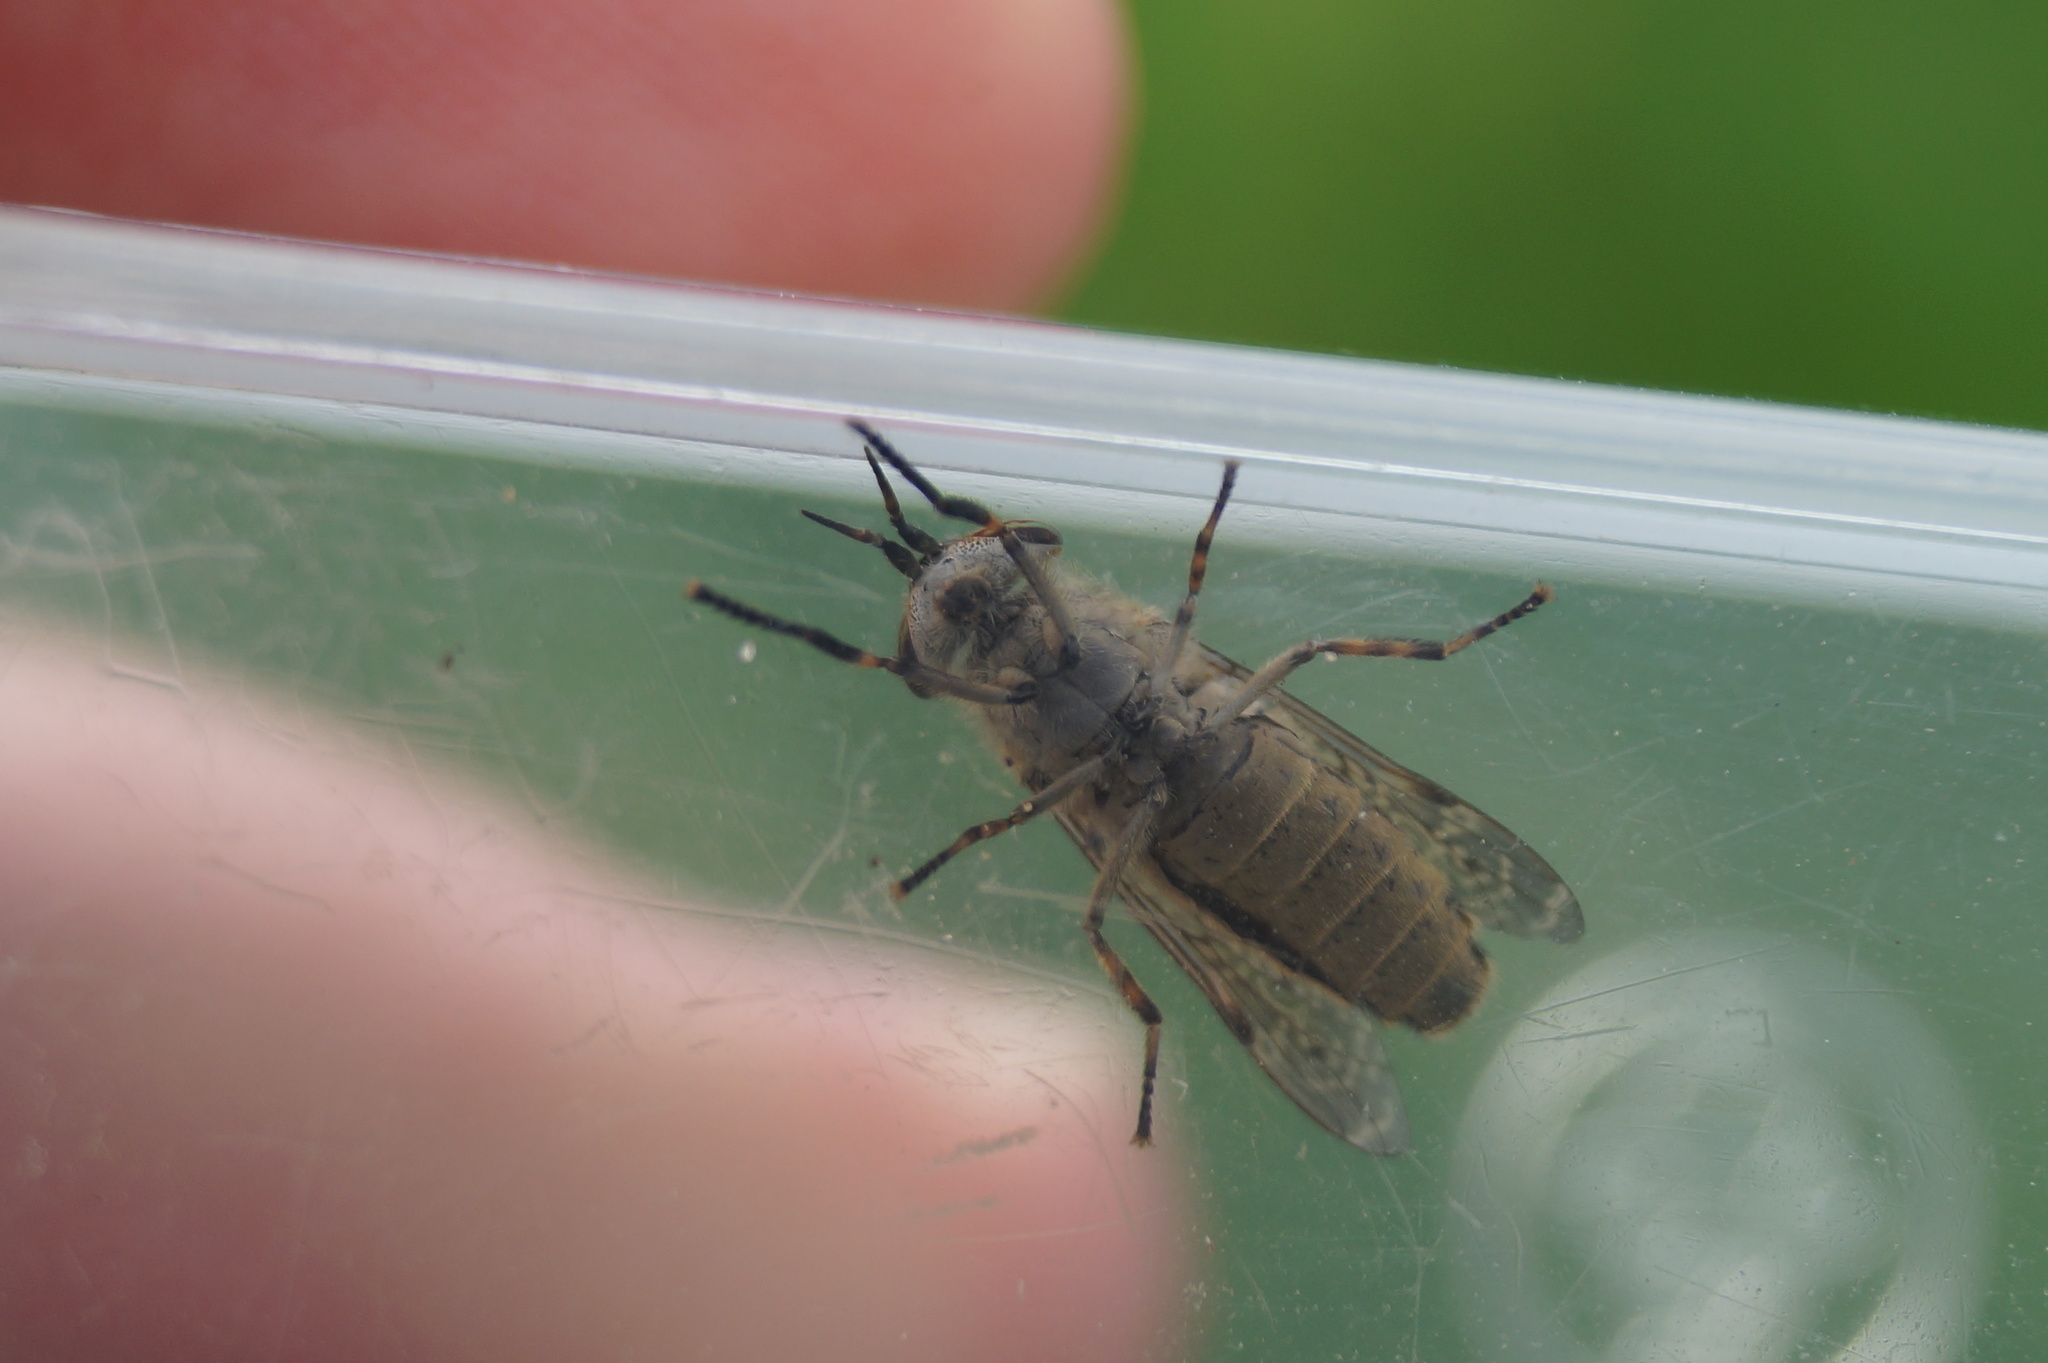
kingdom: Animalia
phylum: Arthropoda
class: Insecta
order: Diptera
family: Tabanidae
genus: Haematopota
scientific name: Haematopota pluvialis
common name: Common horse fly
